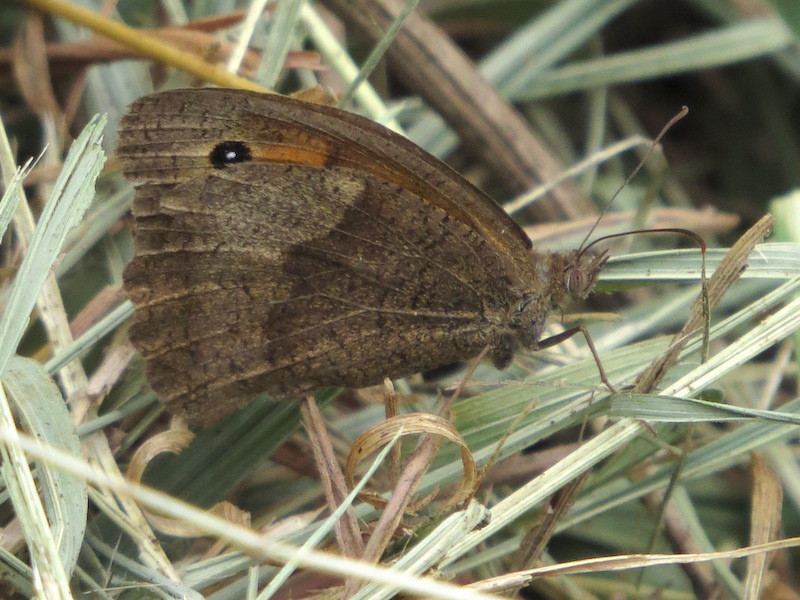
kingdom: Animalia
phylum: Arthropoda
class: Insecta
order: Lepidoptera
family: Nymphalidae
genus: Maniola
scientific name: Maniola jurtina
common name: Meadow brown
